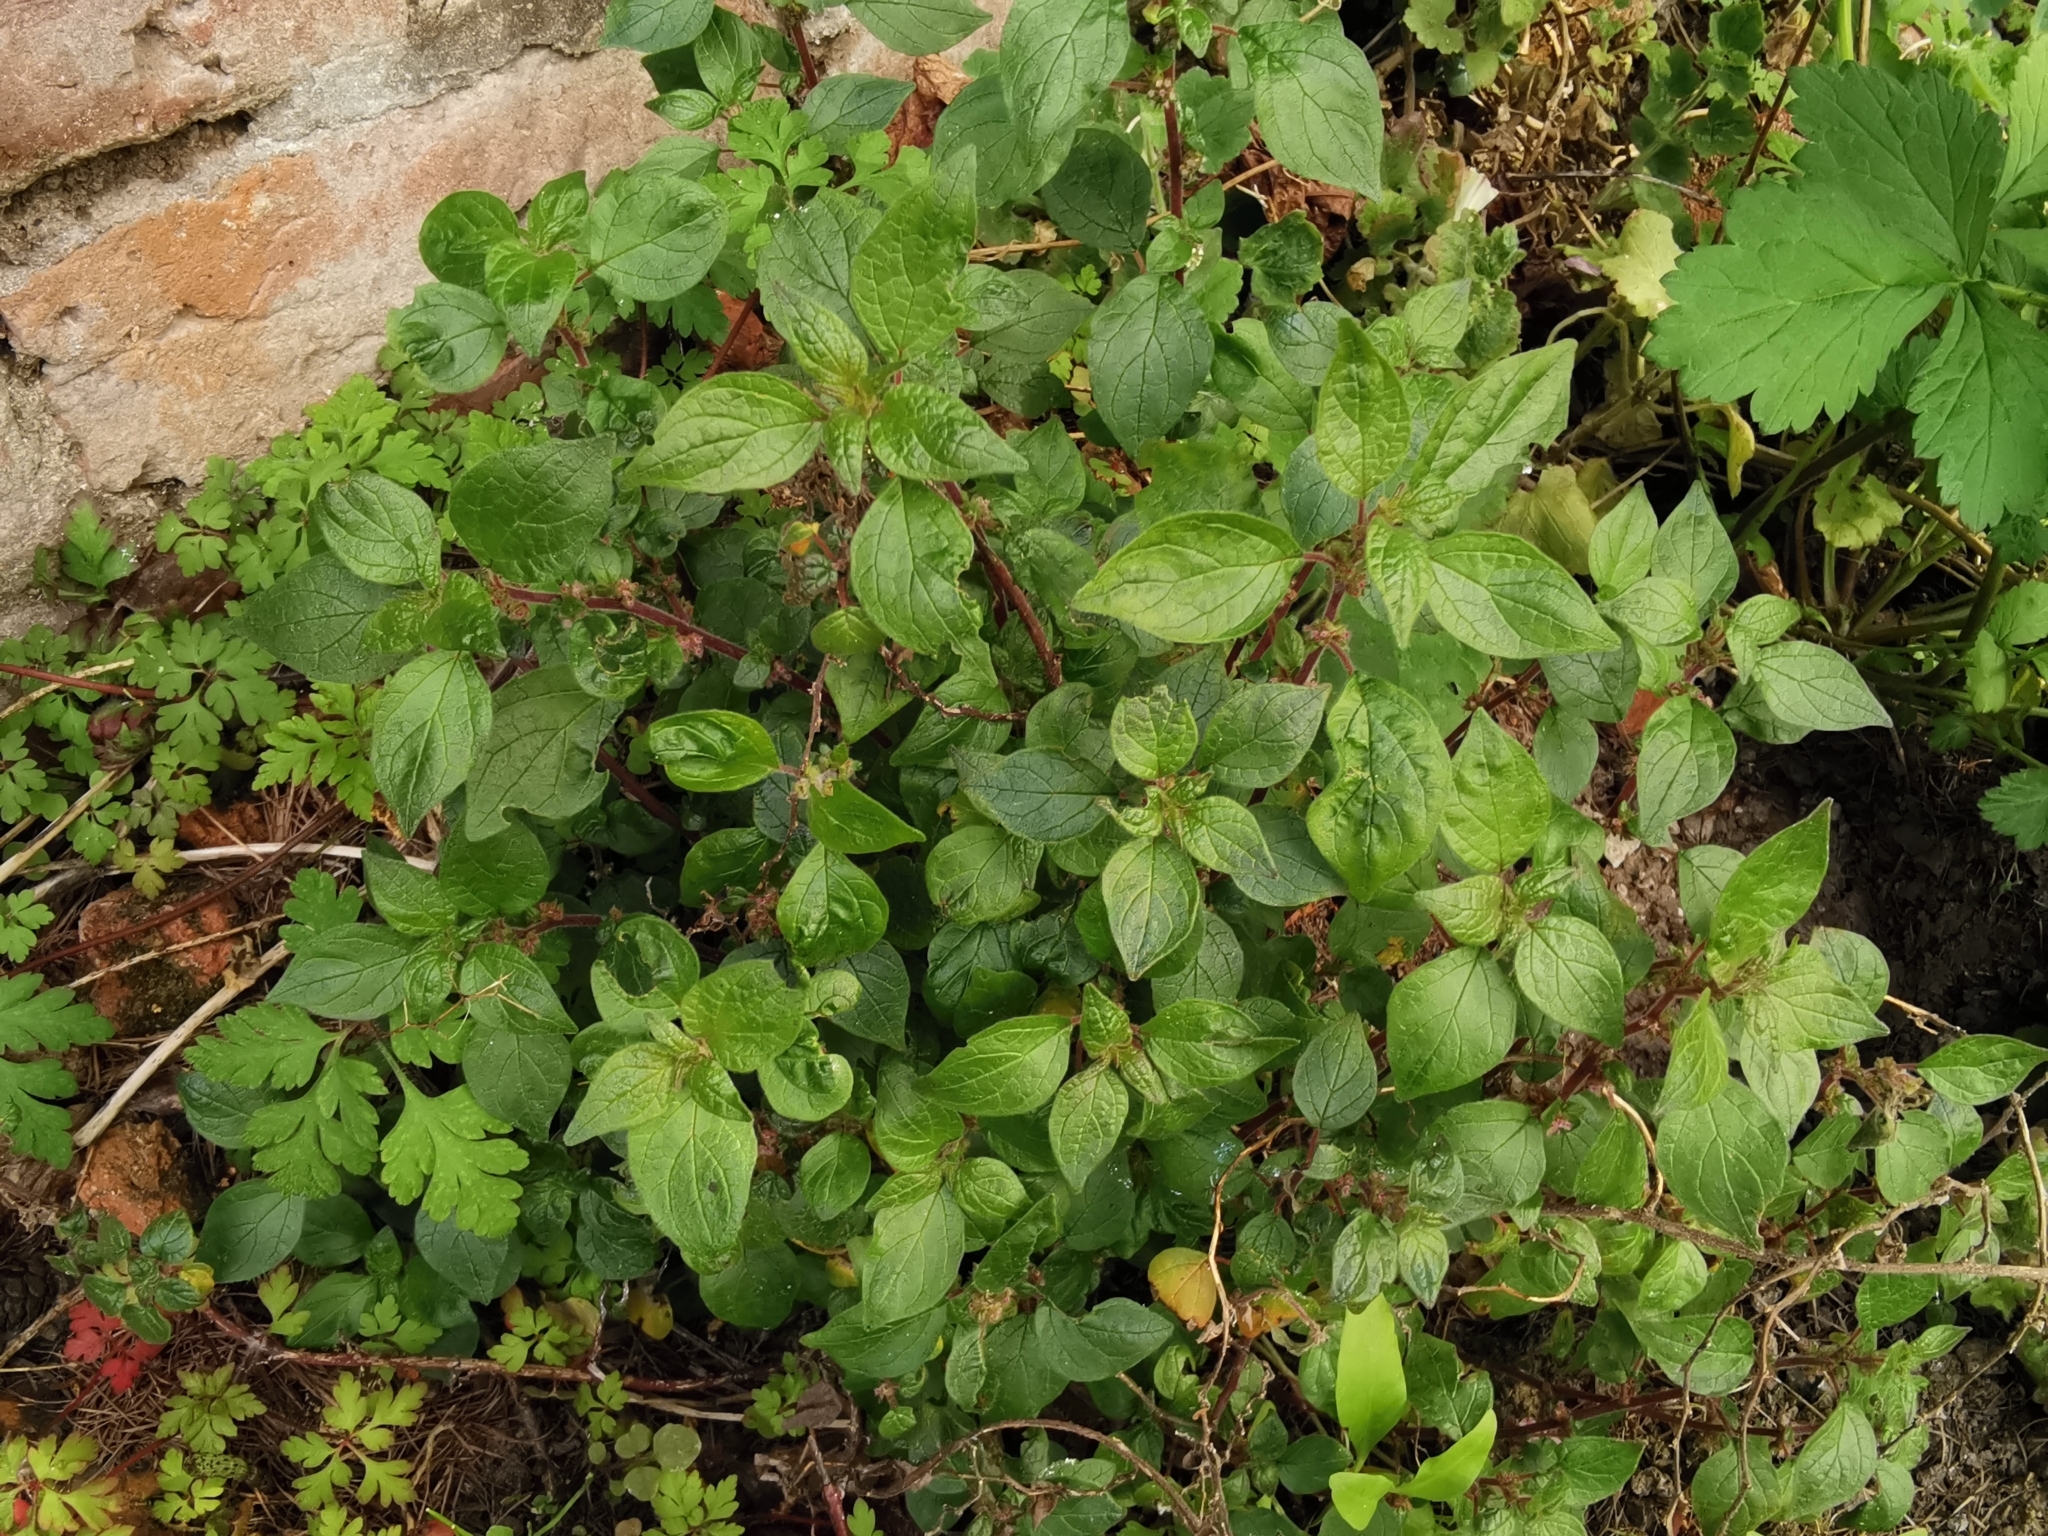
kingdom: Plantae
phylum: Tracheophyta
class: Magnoliopsida
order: Rosales
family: Urticaceae
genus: Parietaria
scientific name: Parietaria judaica
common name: Pellitory-of-the-wall
